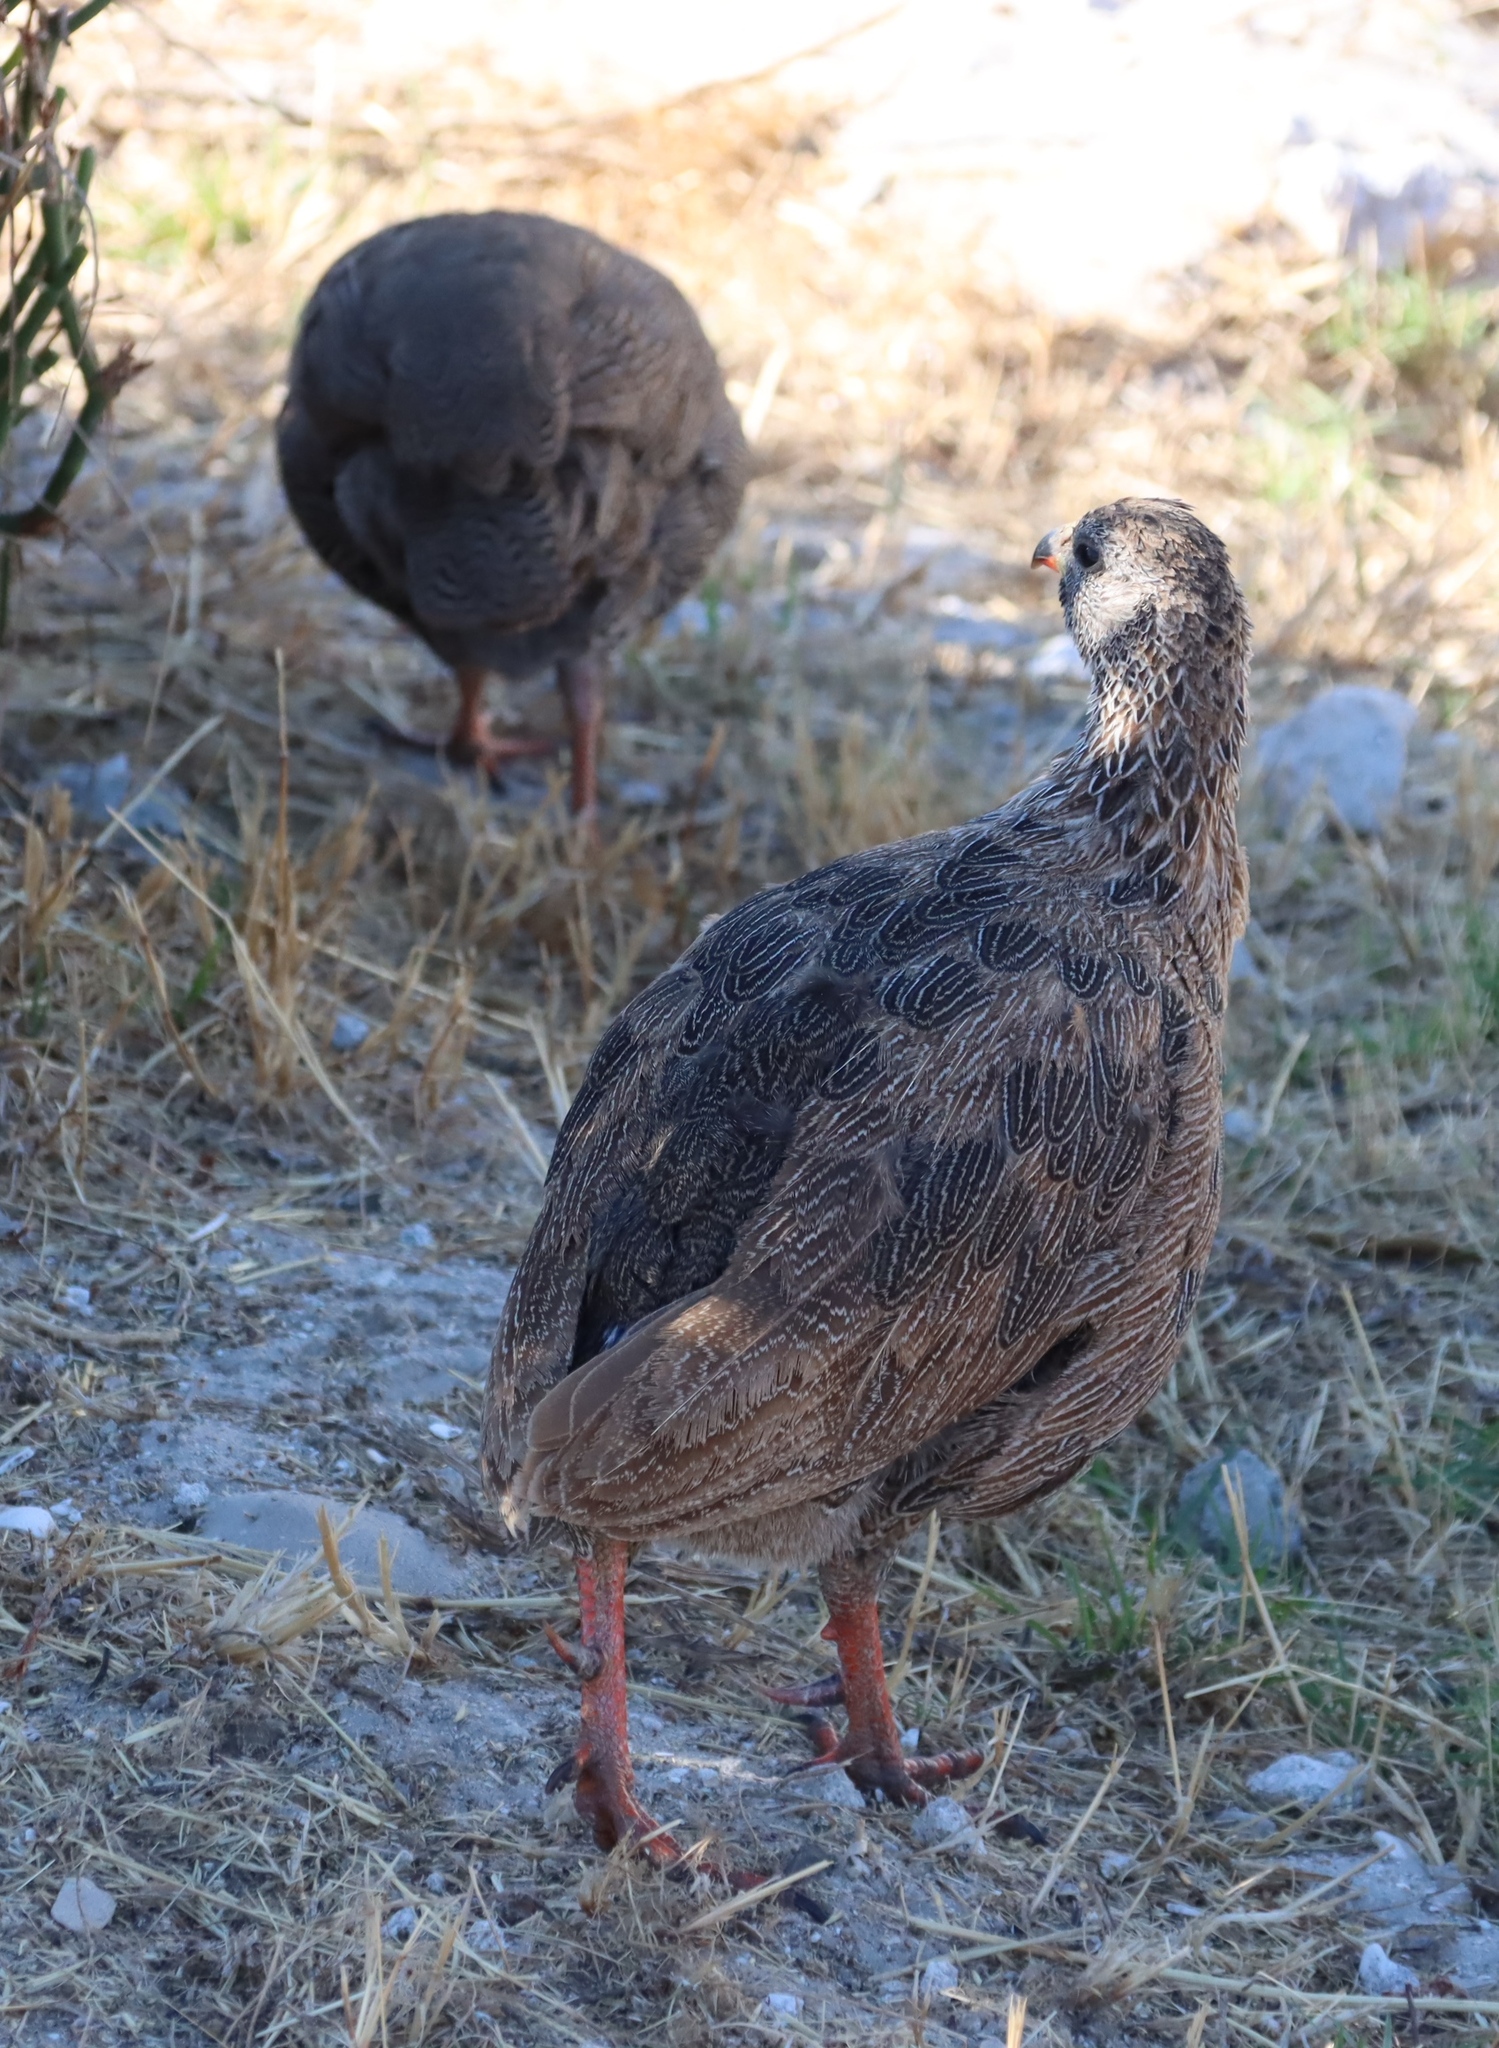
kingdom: Animalia
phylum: Chordata
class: Aves
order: Galliformes
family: Phasianidae
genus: Pternistis
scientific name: Pternistis capensis
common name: Cape spurfowl
